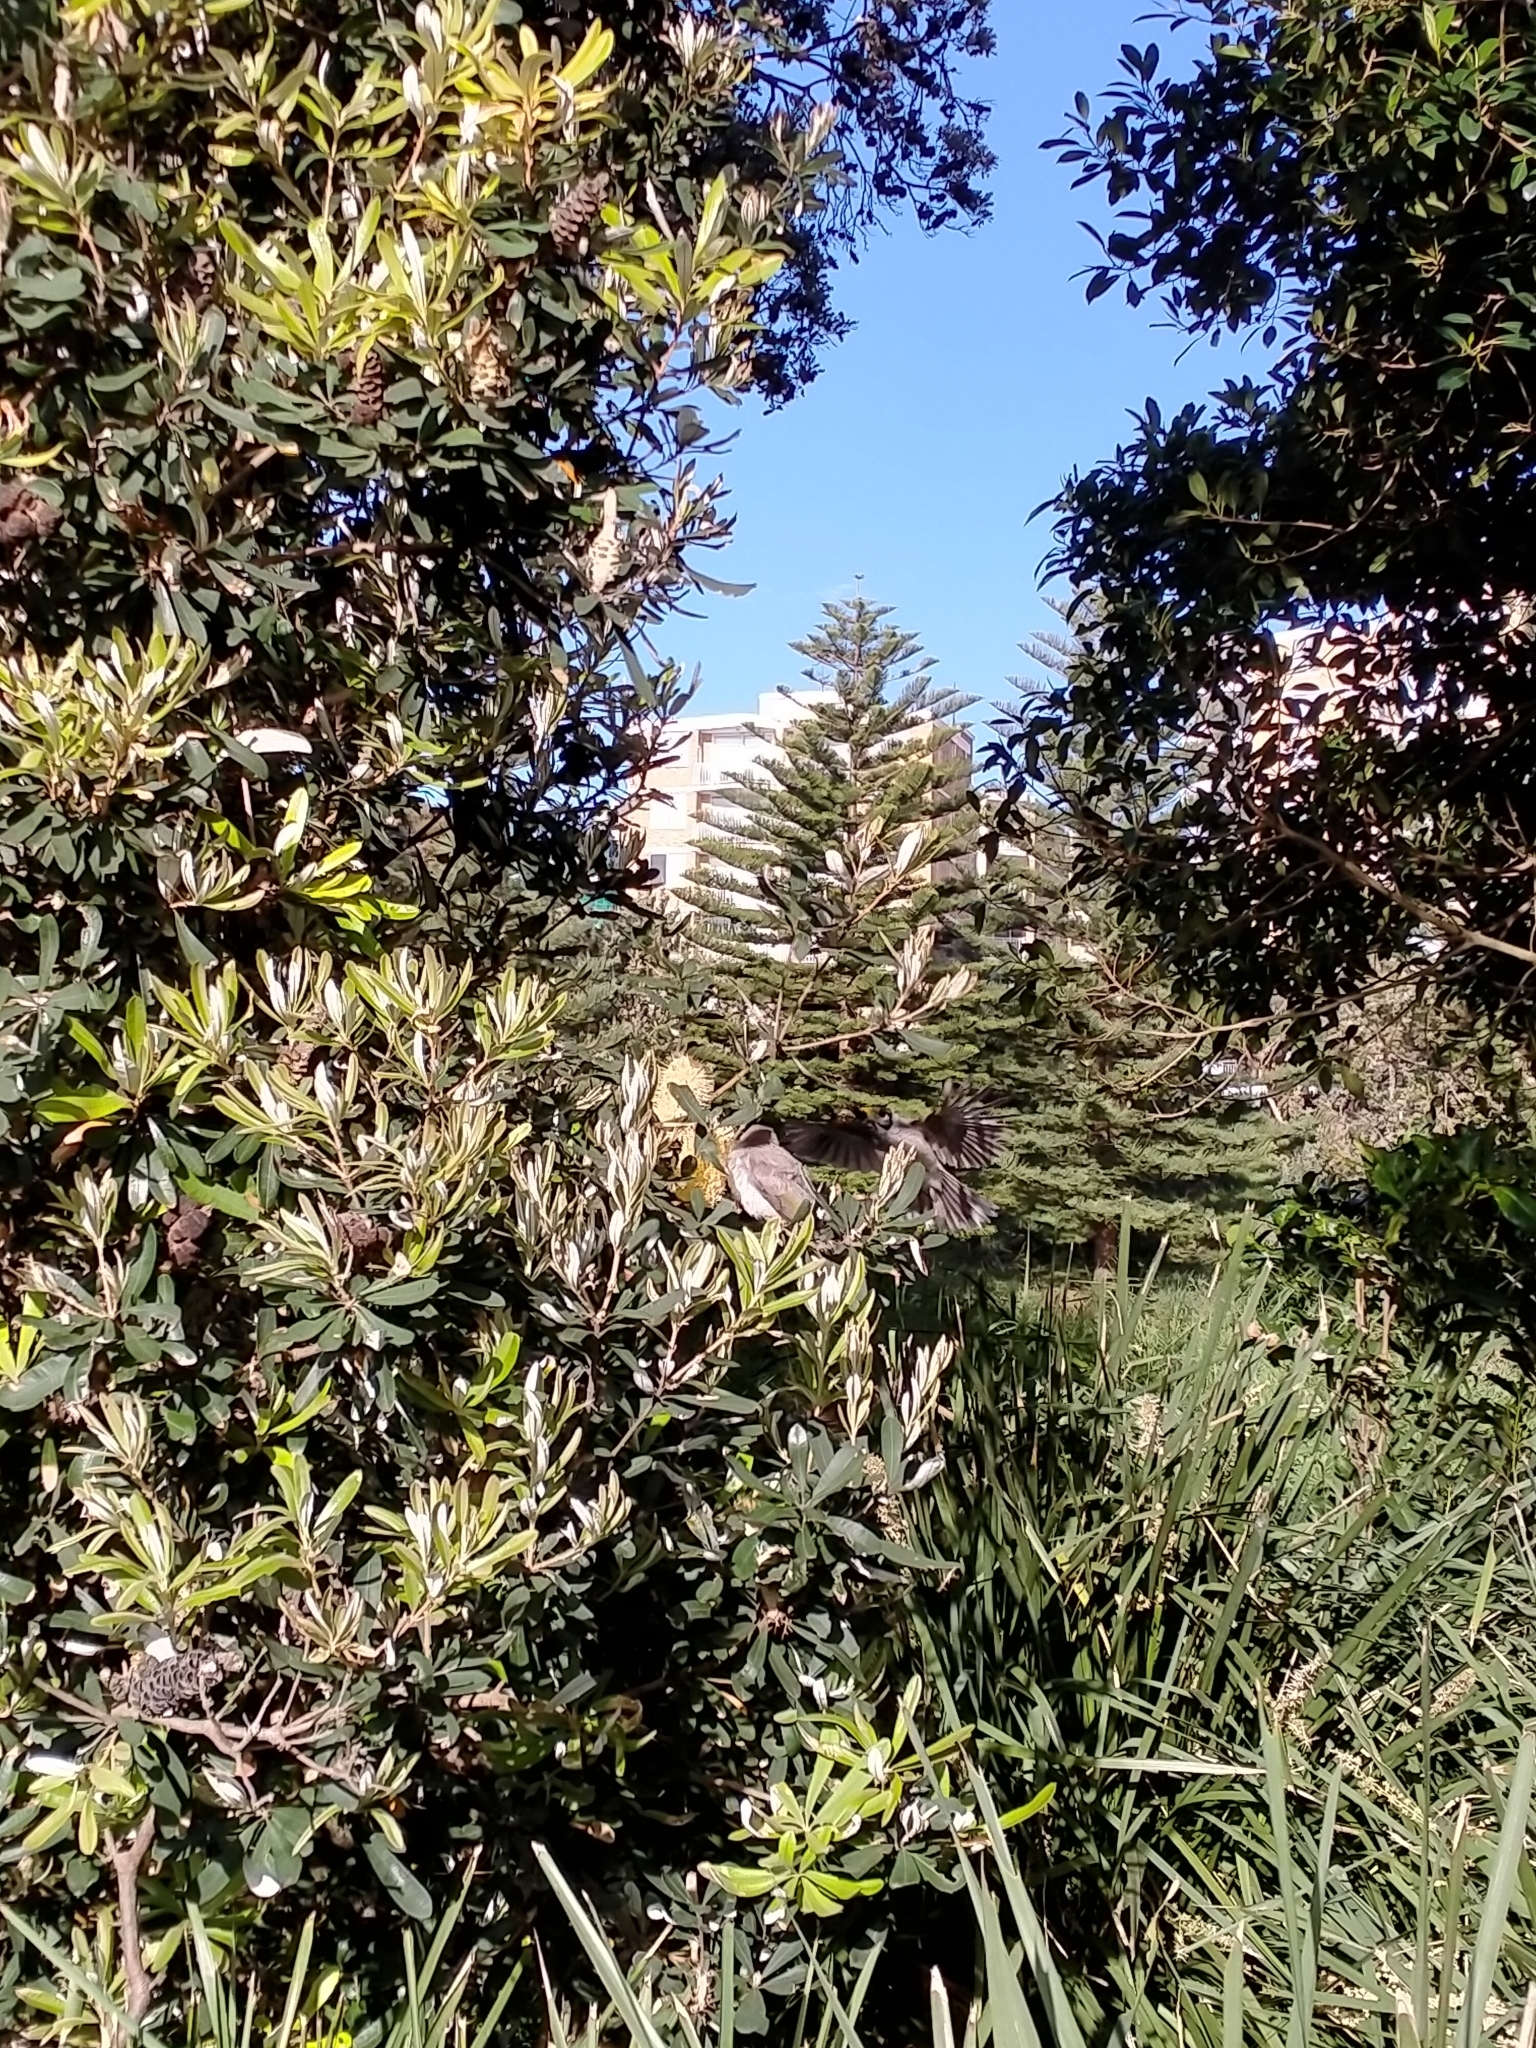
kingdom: Animalia
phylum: Chordata
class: Aves
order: Passeriformes
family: Meliphagidae
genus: Manorina
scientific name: Manorina melanocephala
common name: Noisy miner
